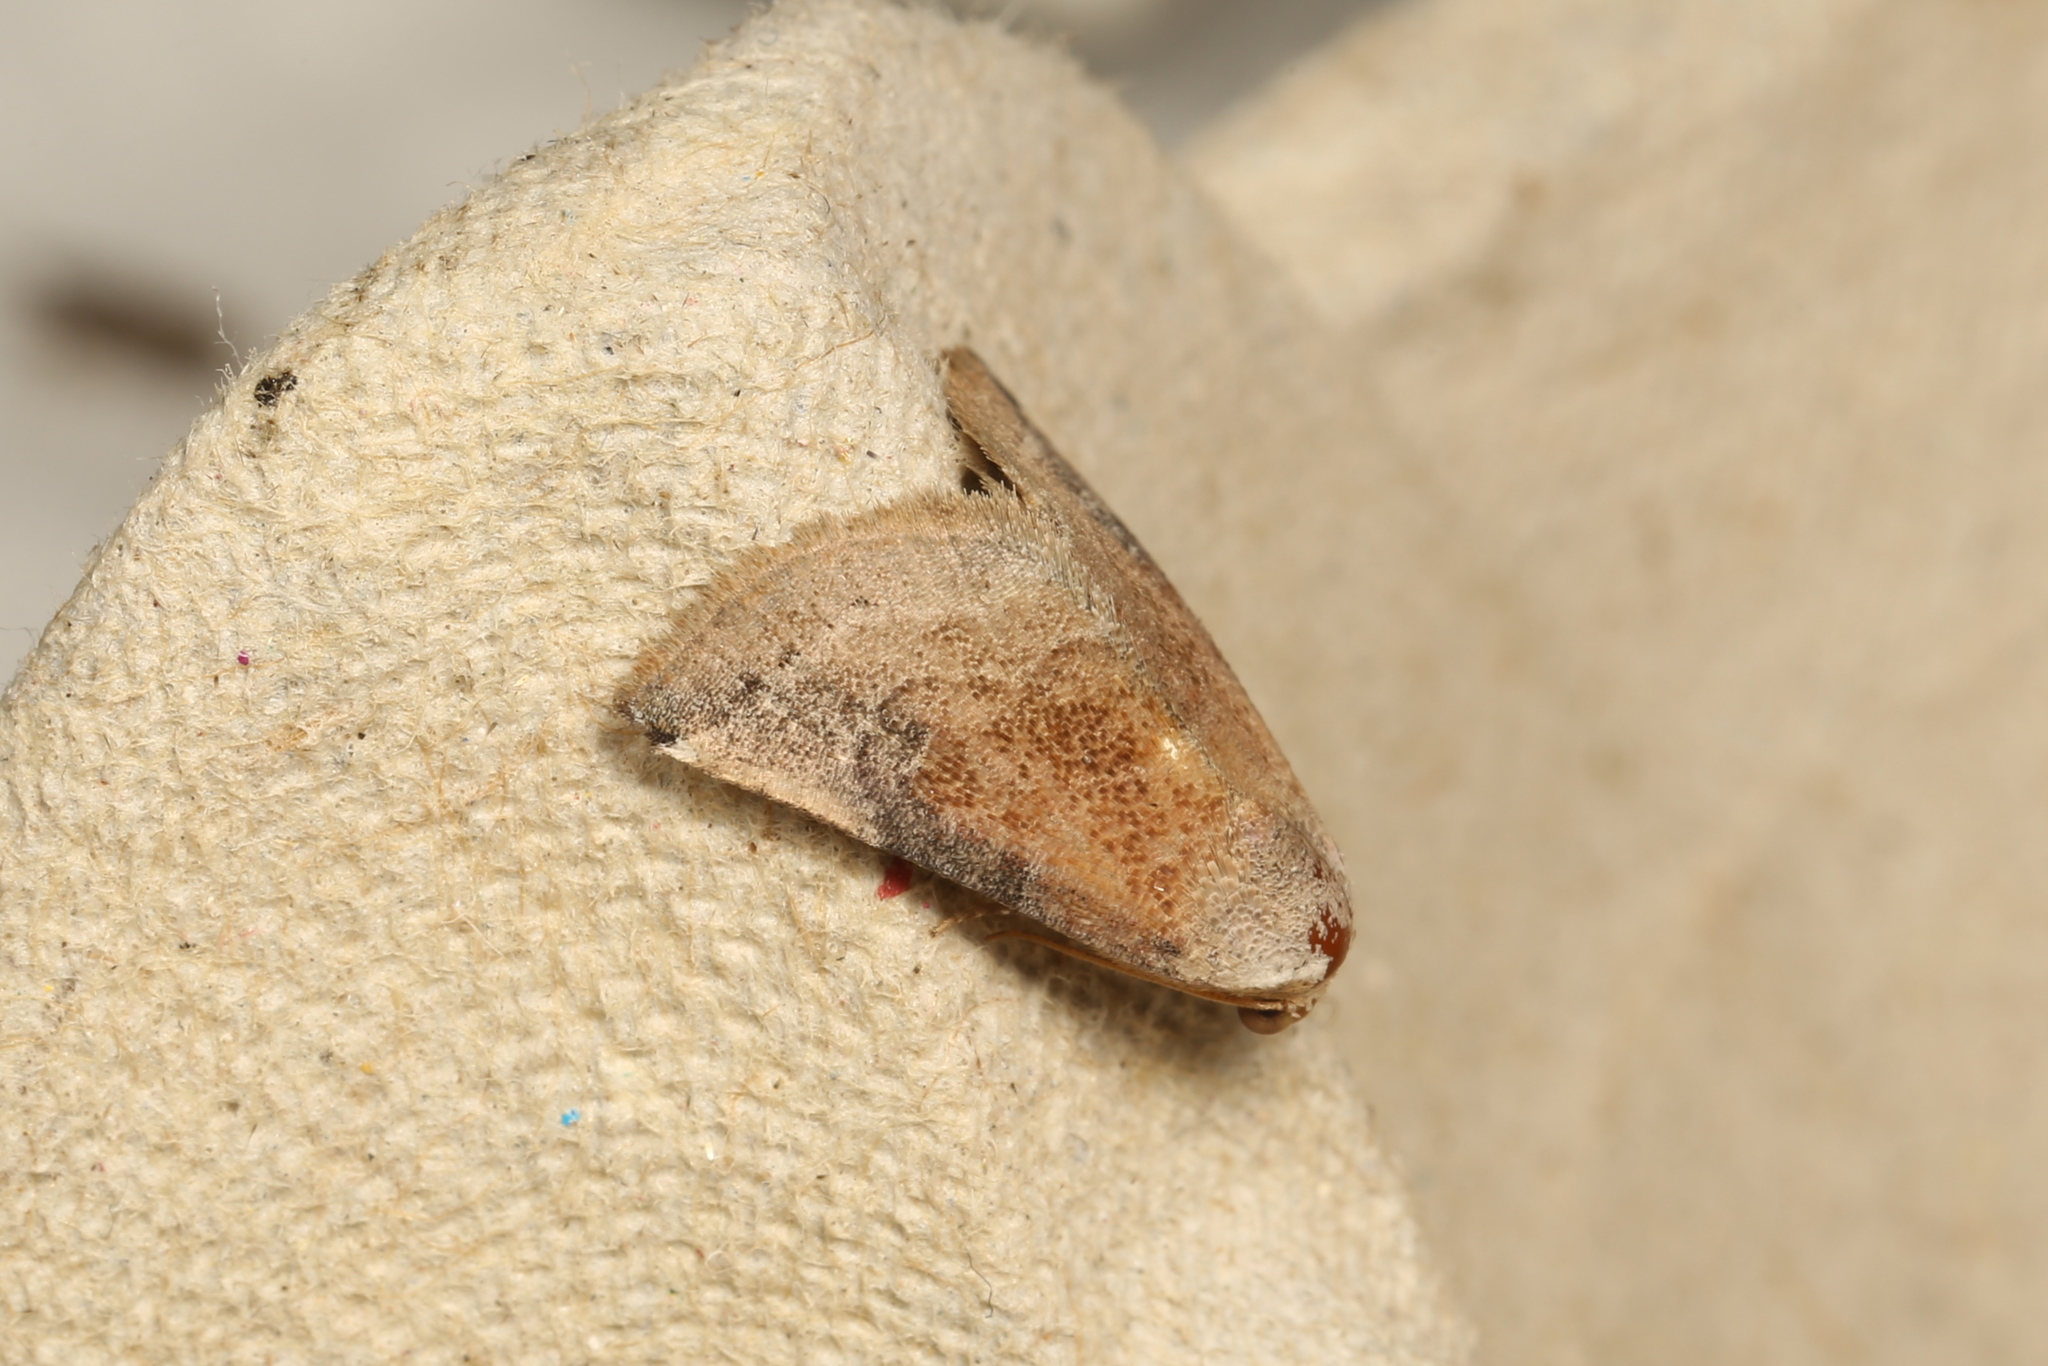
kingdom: Animalia
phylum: Arthropoda
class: Insecta
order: Lepidoptera
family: Noctuidae
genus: Mataeomera
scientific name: Mataeomera mesotaenia
